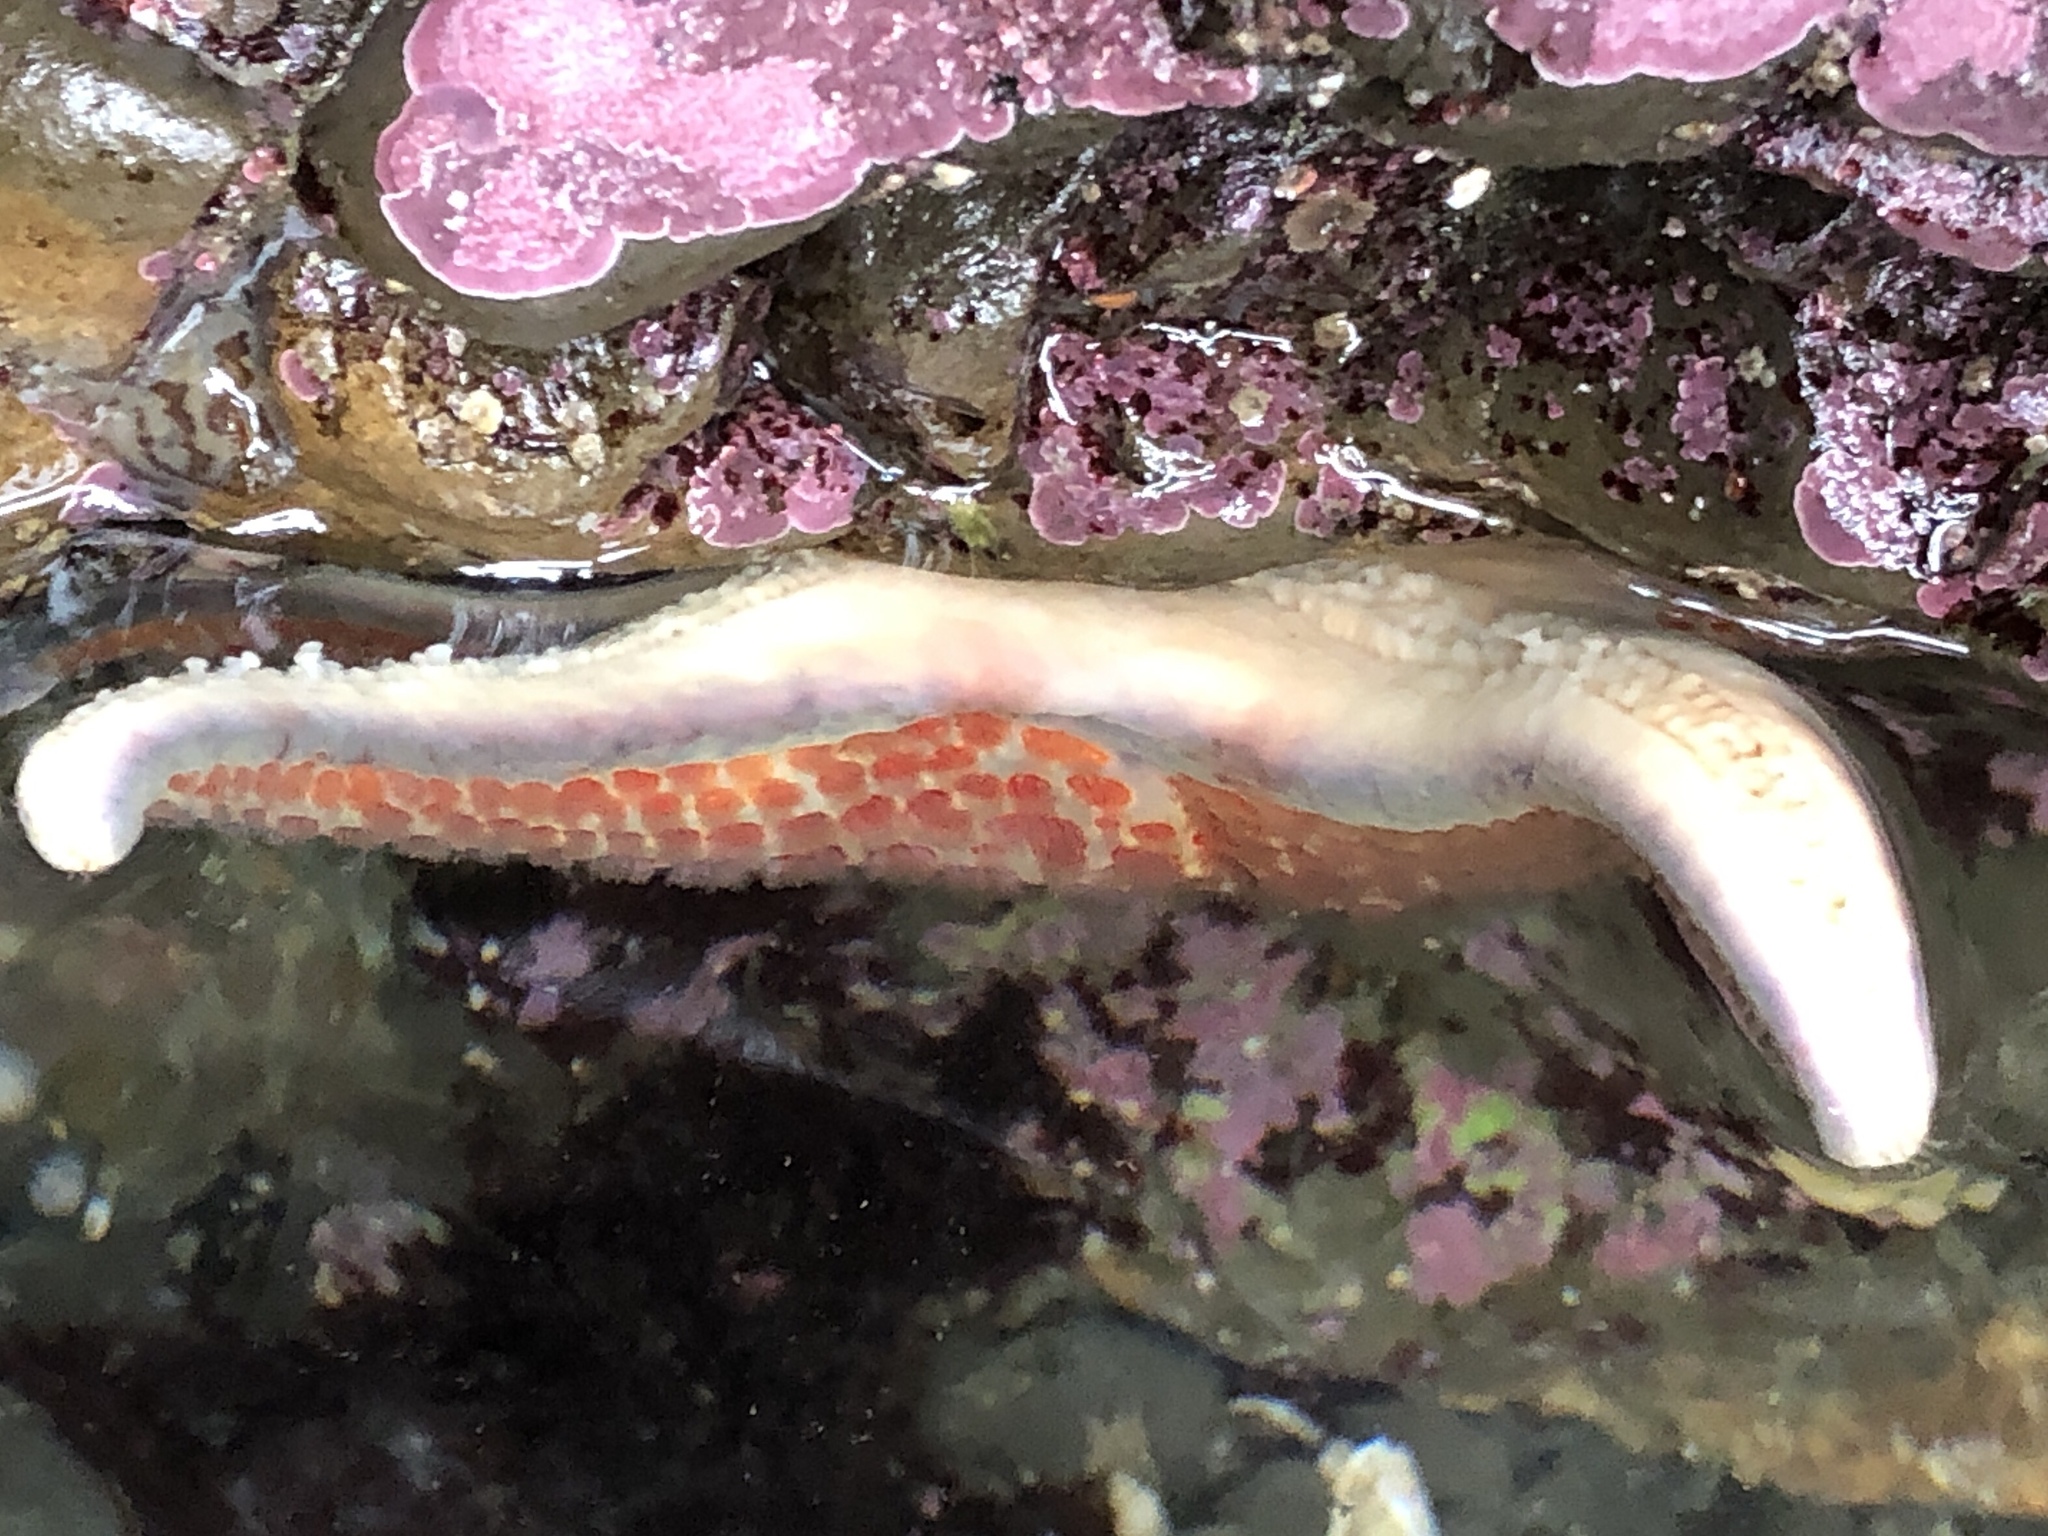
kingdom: Animalia
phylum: Echinodermata
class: Asteroidea
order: Valvatida
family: Asteropseidae
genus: Dermasterias
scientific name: Dermasterias imbricata
